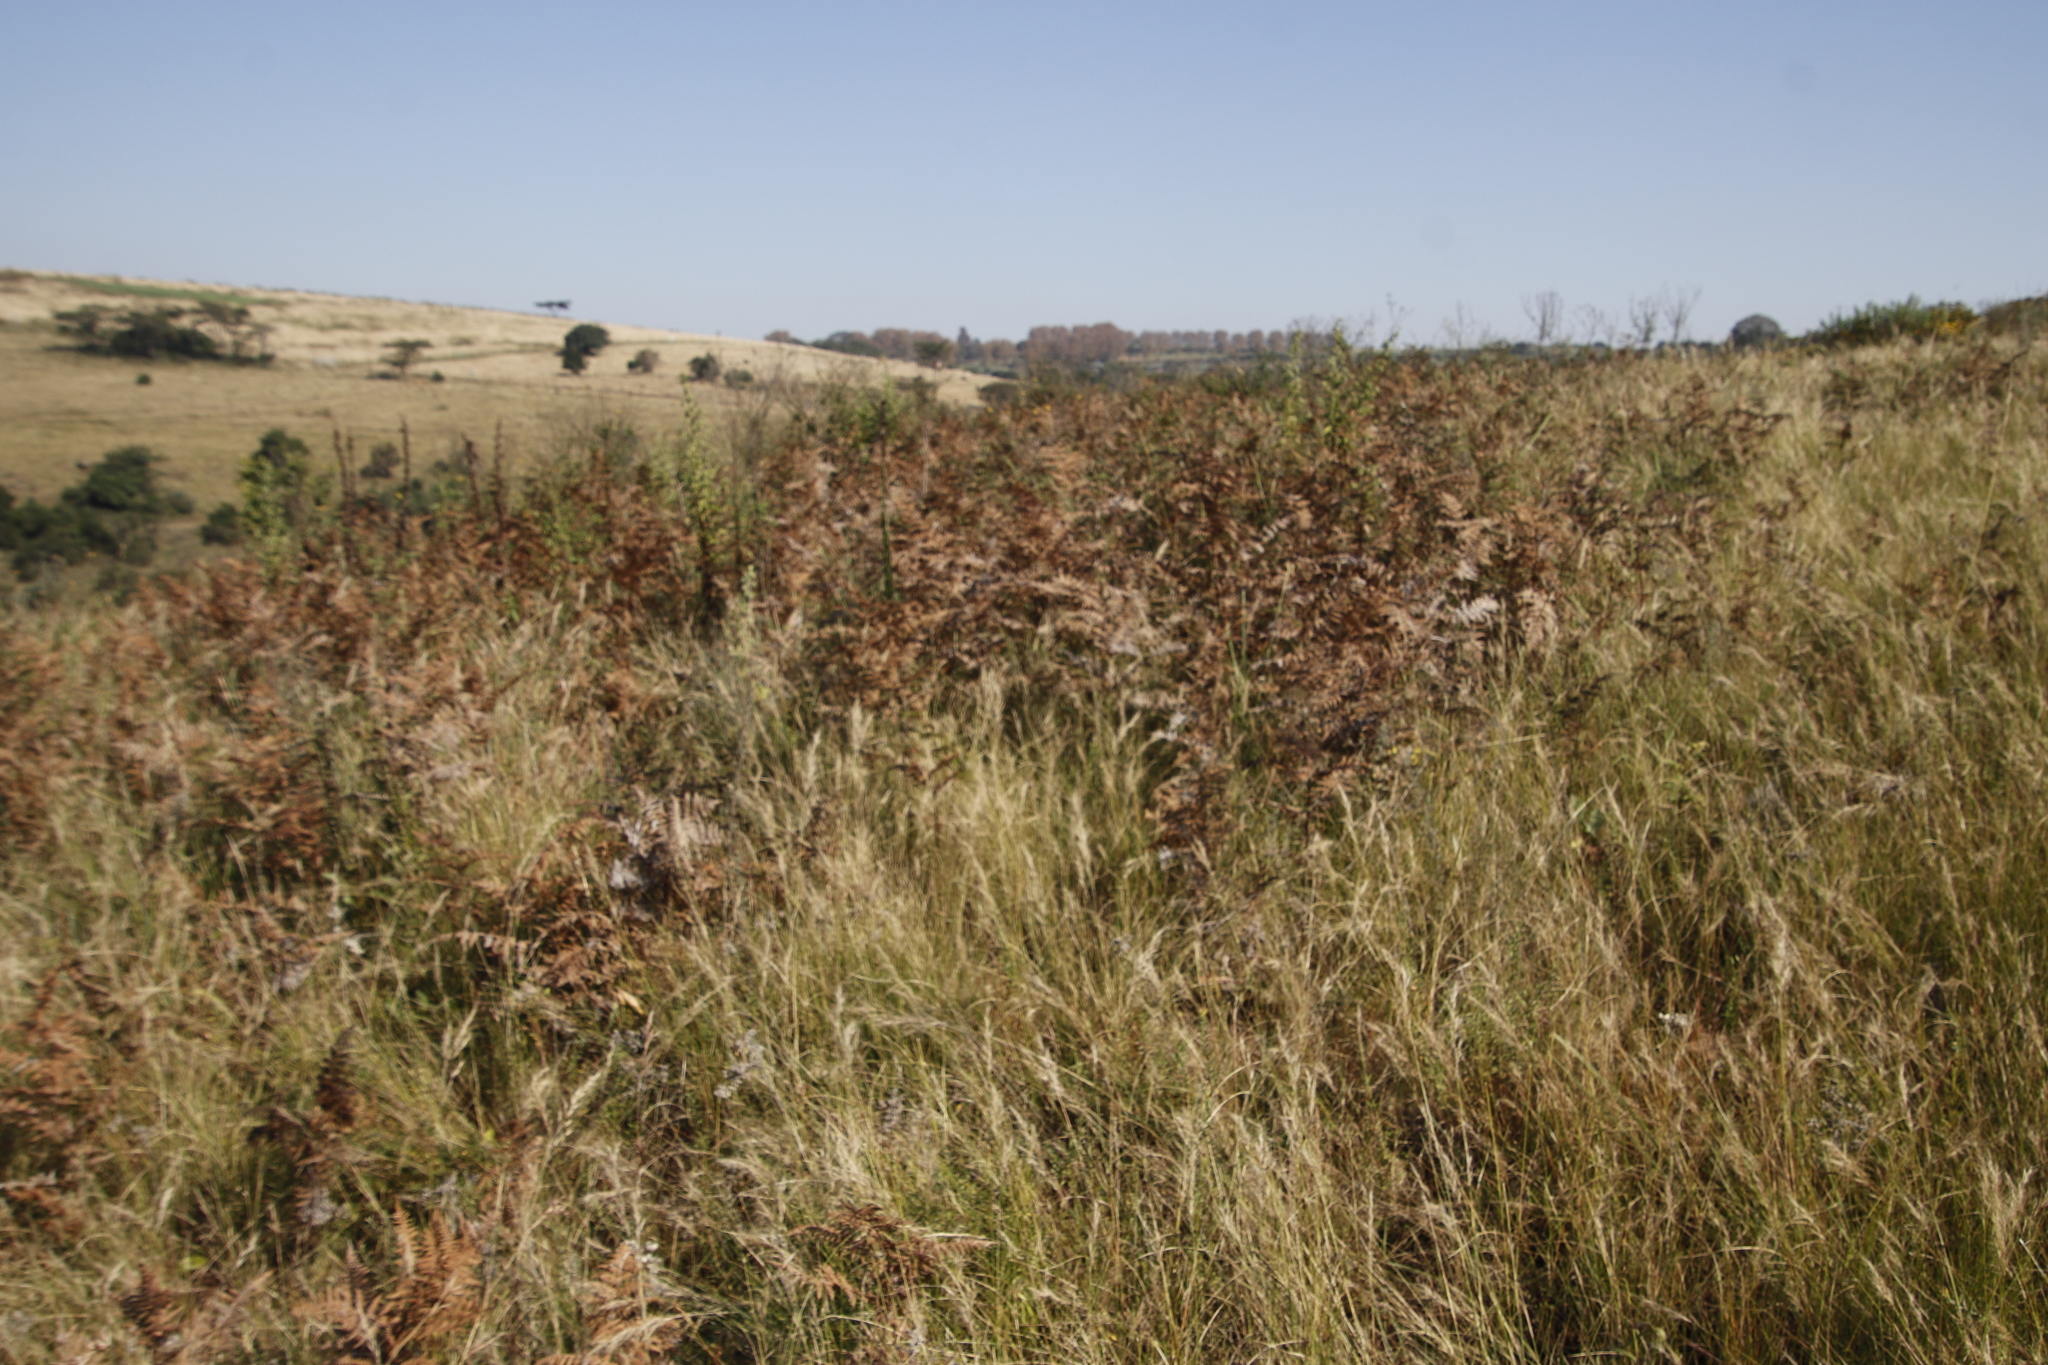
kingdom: Plantae
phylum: Tracheophyta
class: Polypodiopsida
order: Polypodiales
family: Dennstaedtiaceae
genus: Pteridium
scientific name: Pteridium aquilinum
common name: Bracken
